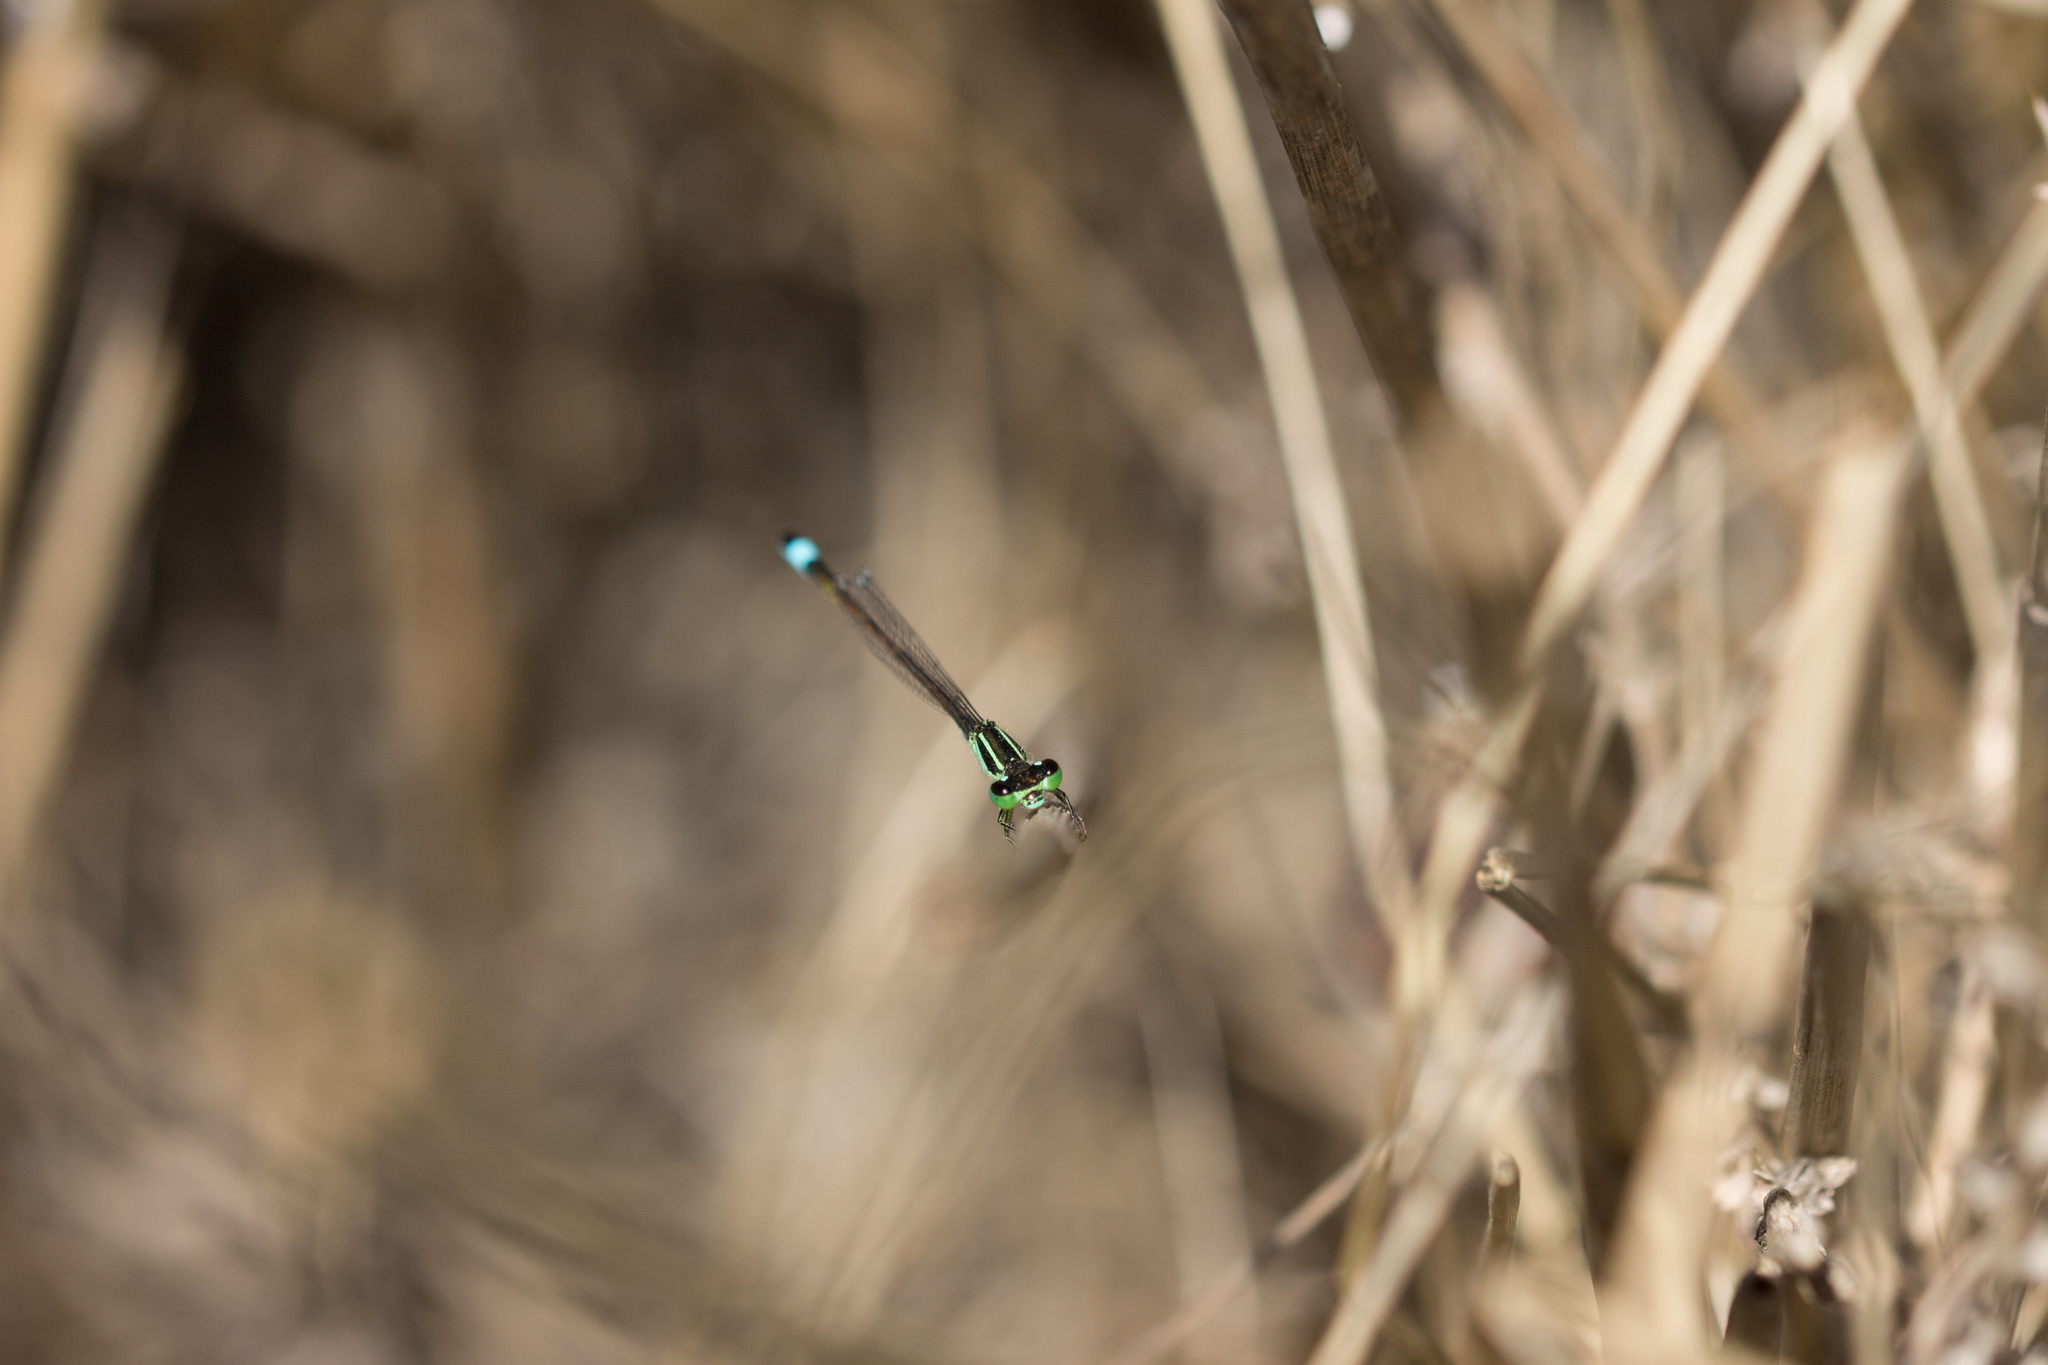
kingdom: Animalia
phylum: Arthropoda
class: Insecta
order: Odonata
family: Coenagrionidae
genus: Ischnura
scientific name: Ischnura elegans
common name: Blue-tailed damselfly
